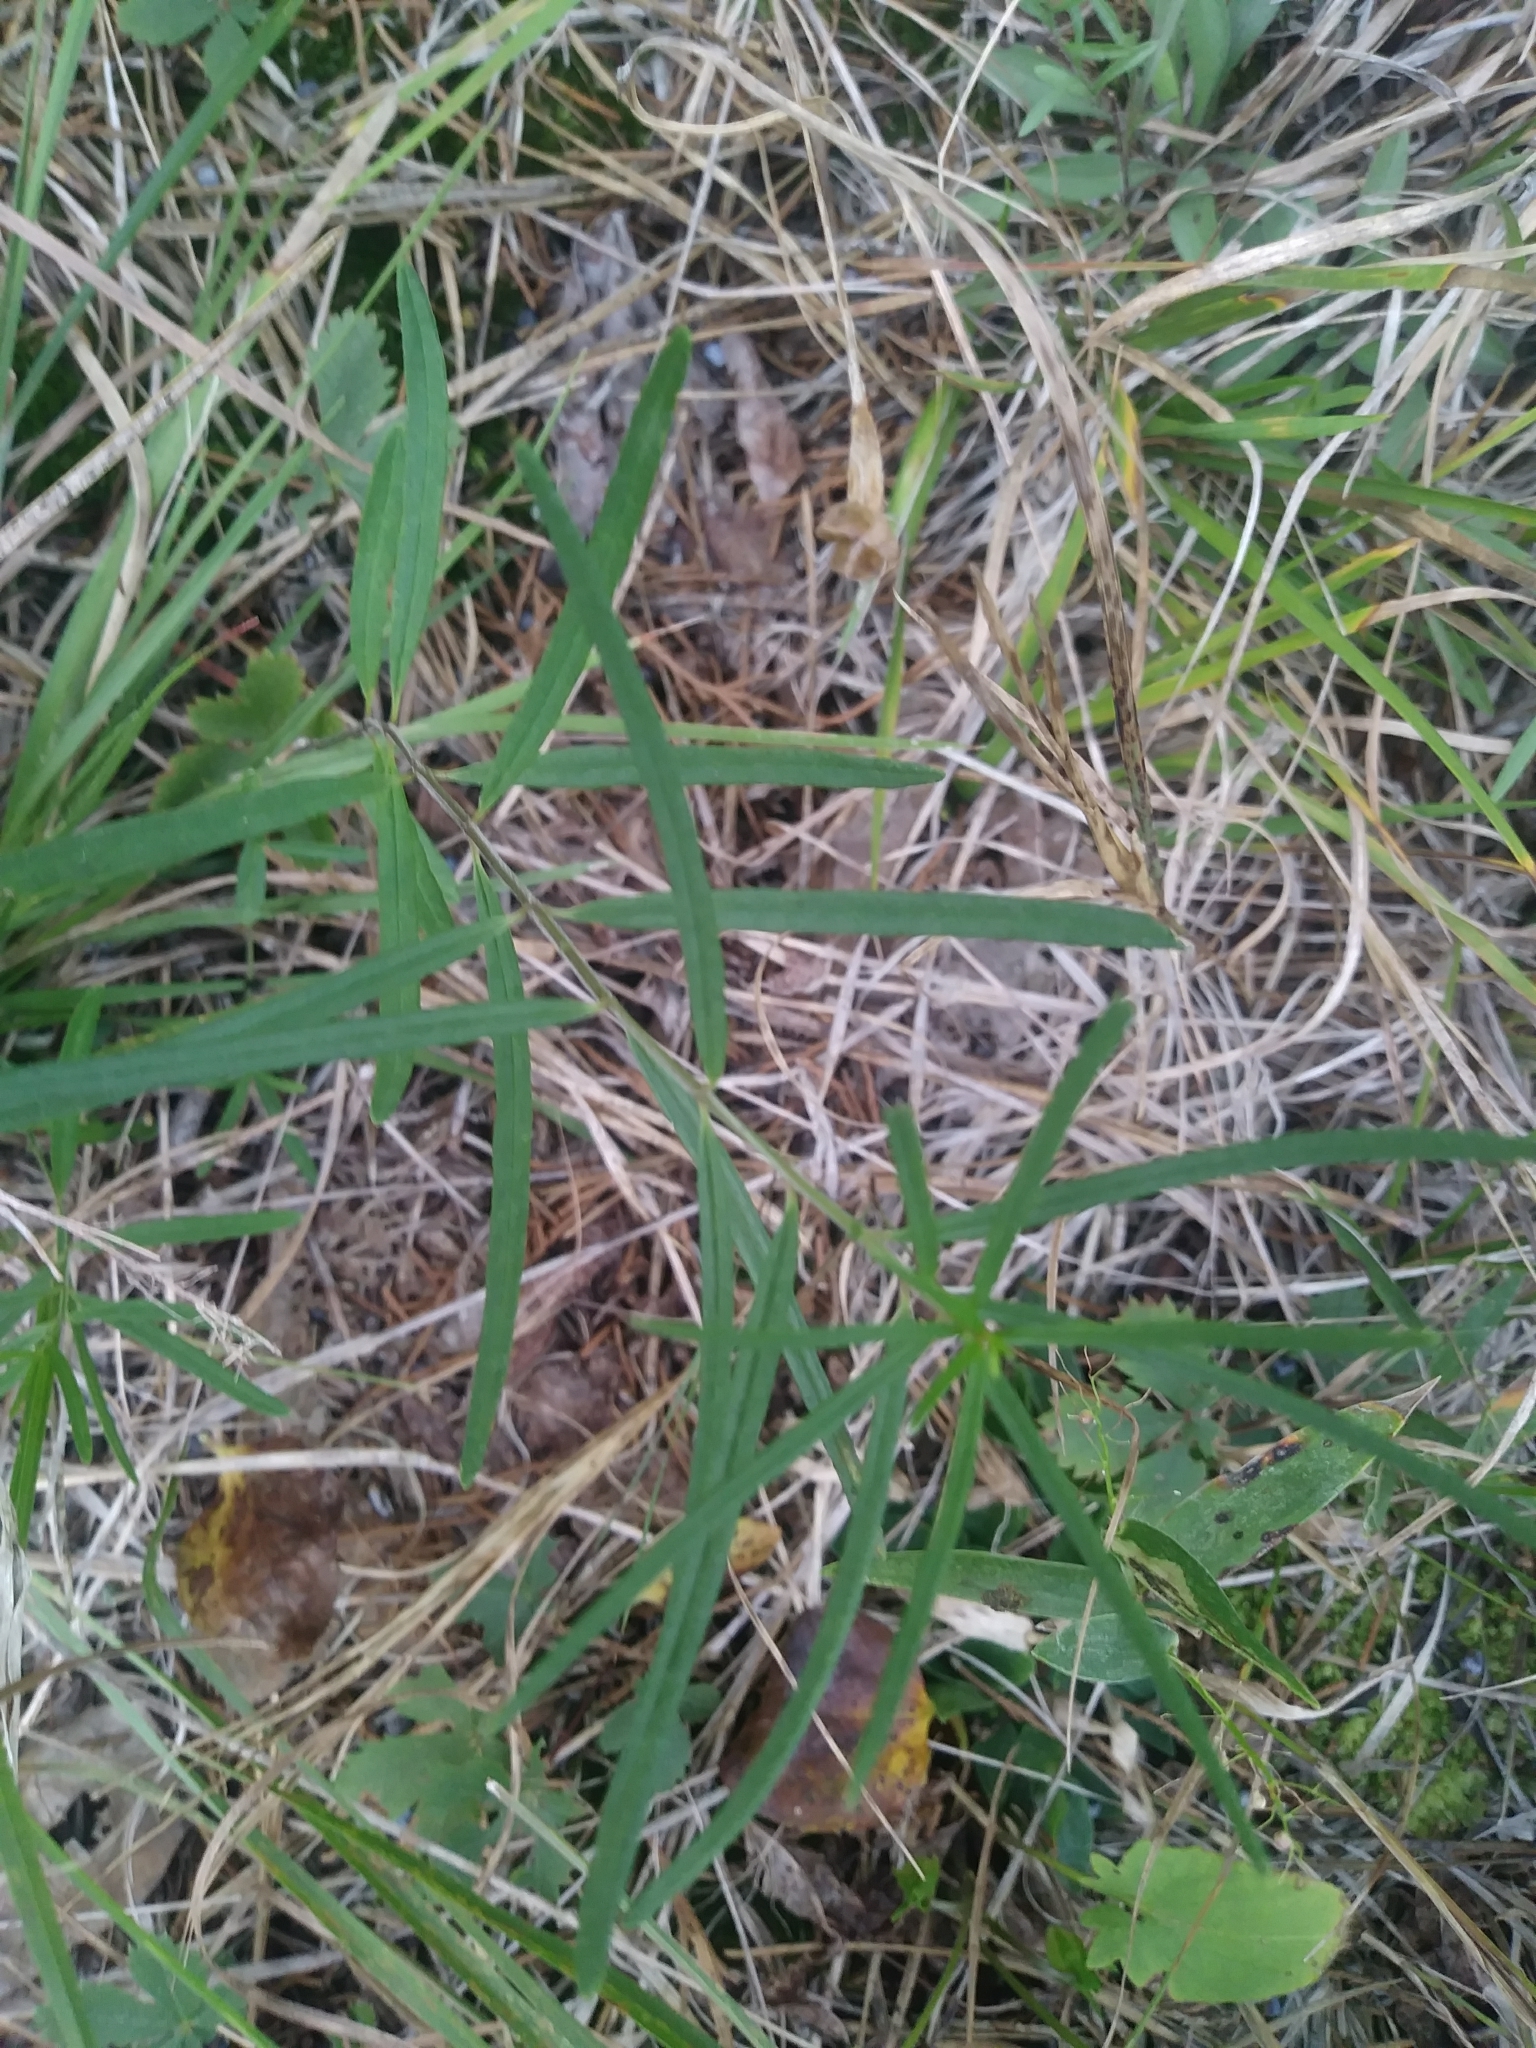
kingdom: Plantae
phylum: Tracheophyta
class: Magnoliopsida
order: Gentianales
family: Apocynaceae
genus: Asclepias
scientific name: Asclepias verticillata
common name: Eastern whorled milkweed
